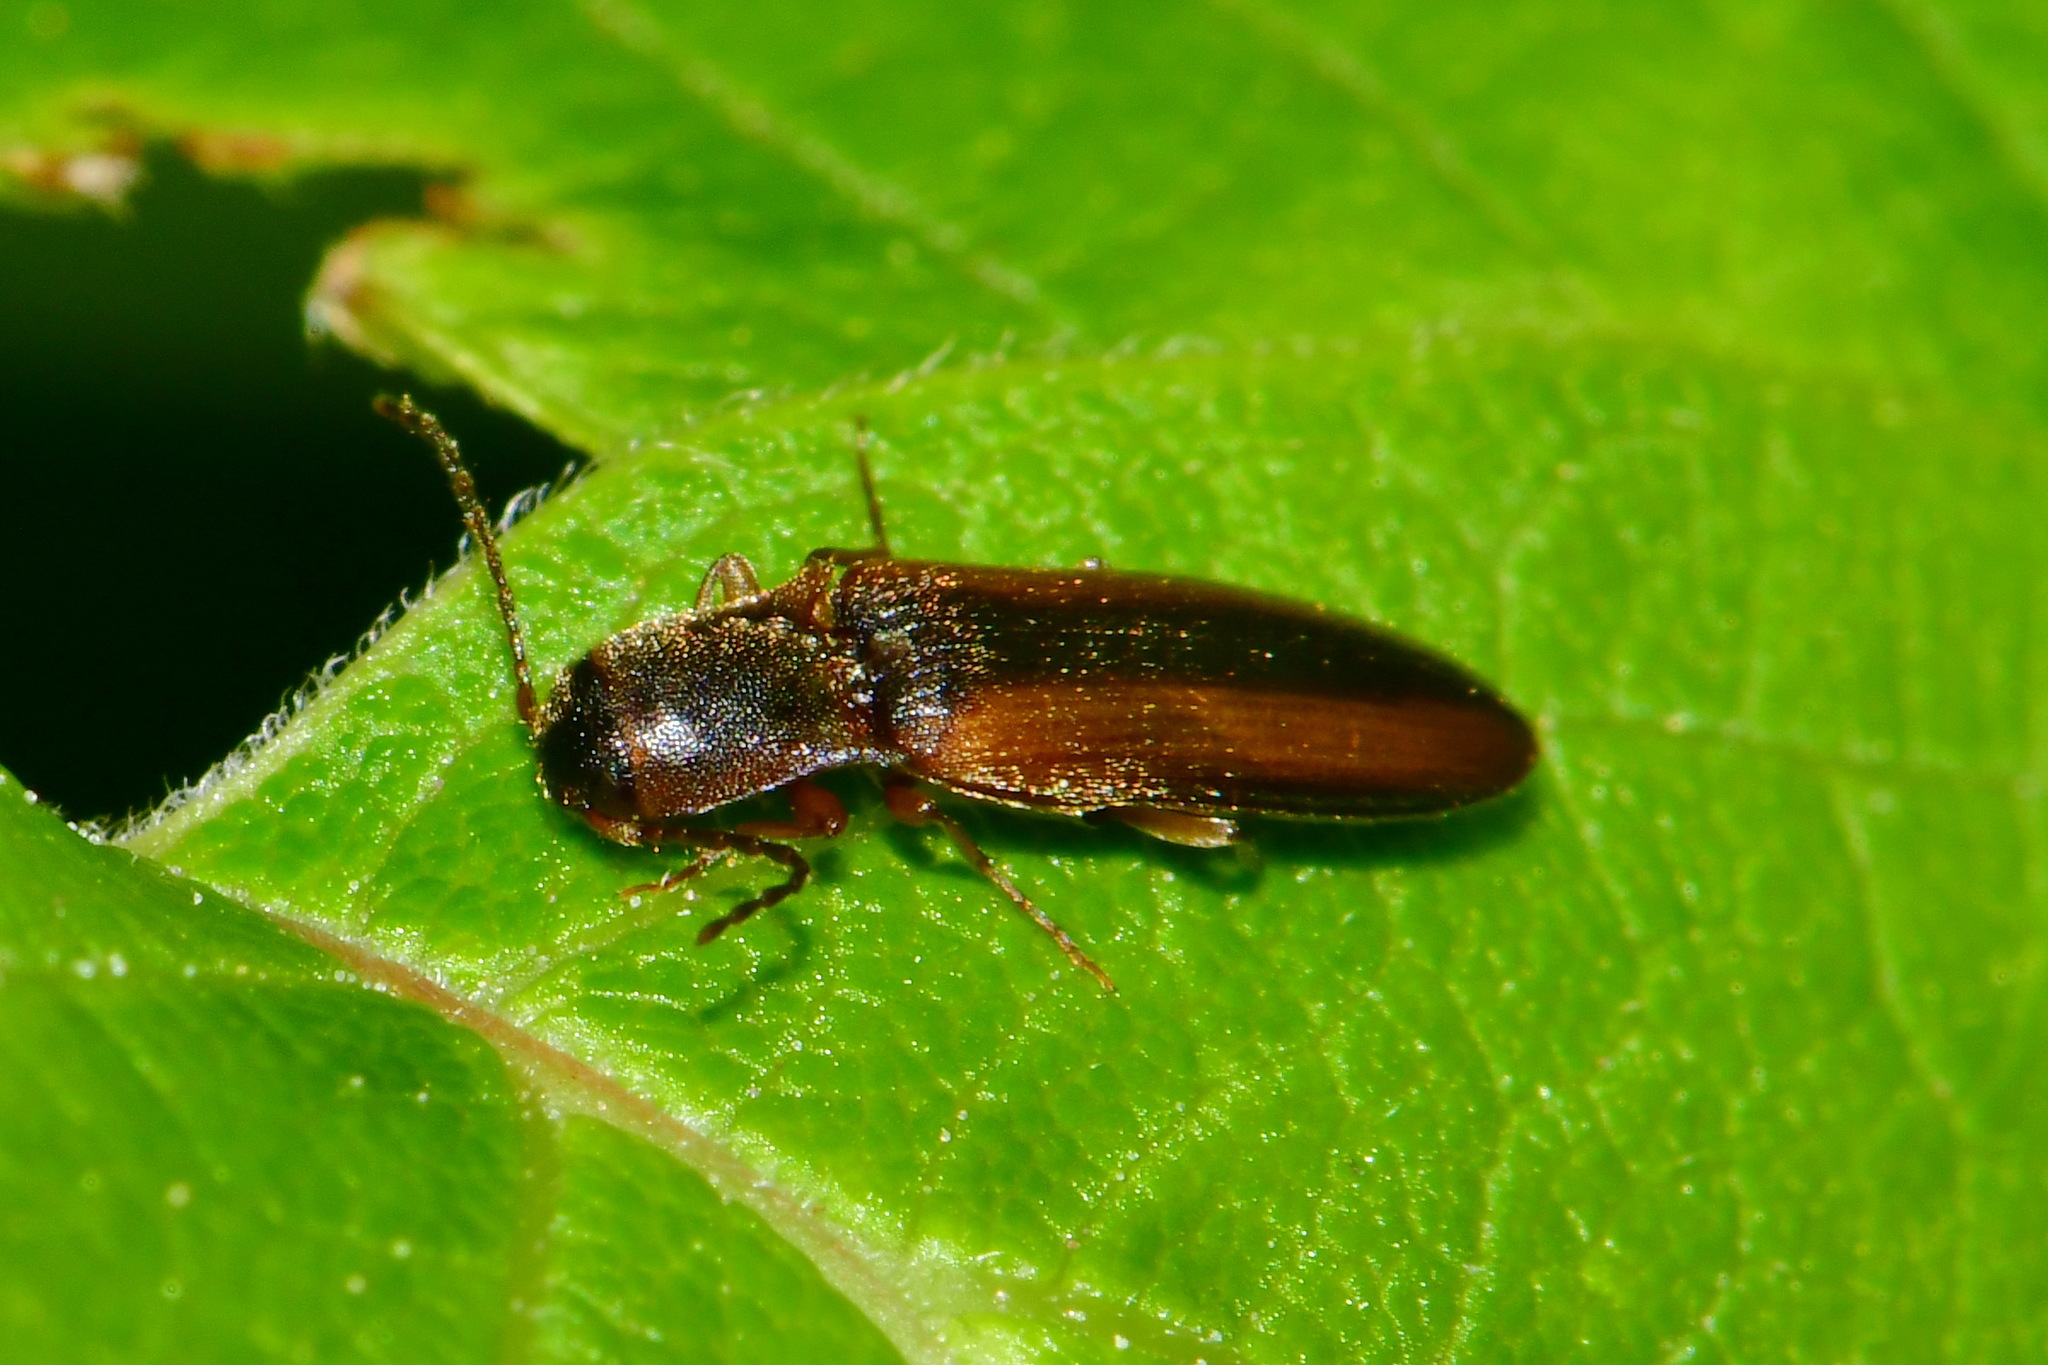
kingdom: Animalia
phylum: Arthropoda
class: Insecta
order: Coleoptera
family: Elateridae
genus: Dalopius
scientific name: Dalopius marginatus
